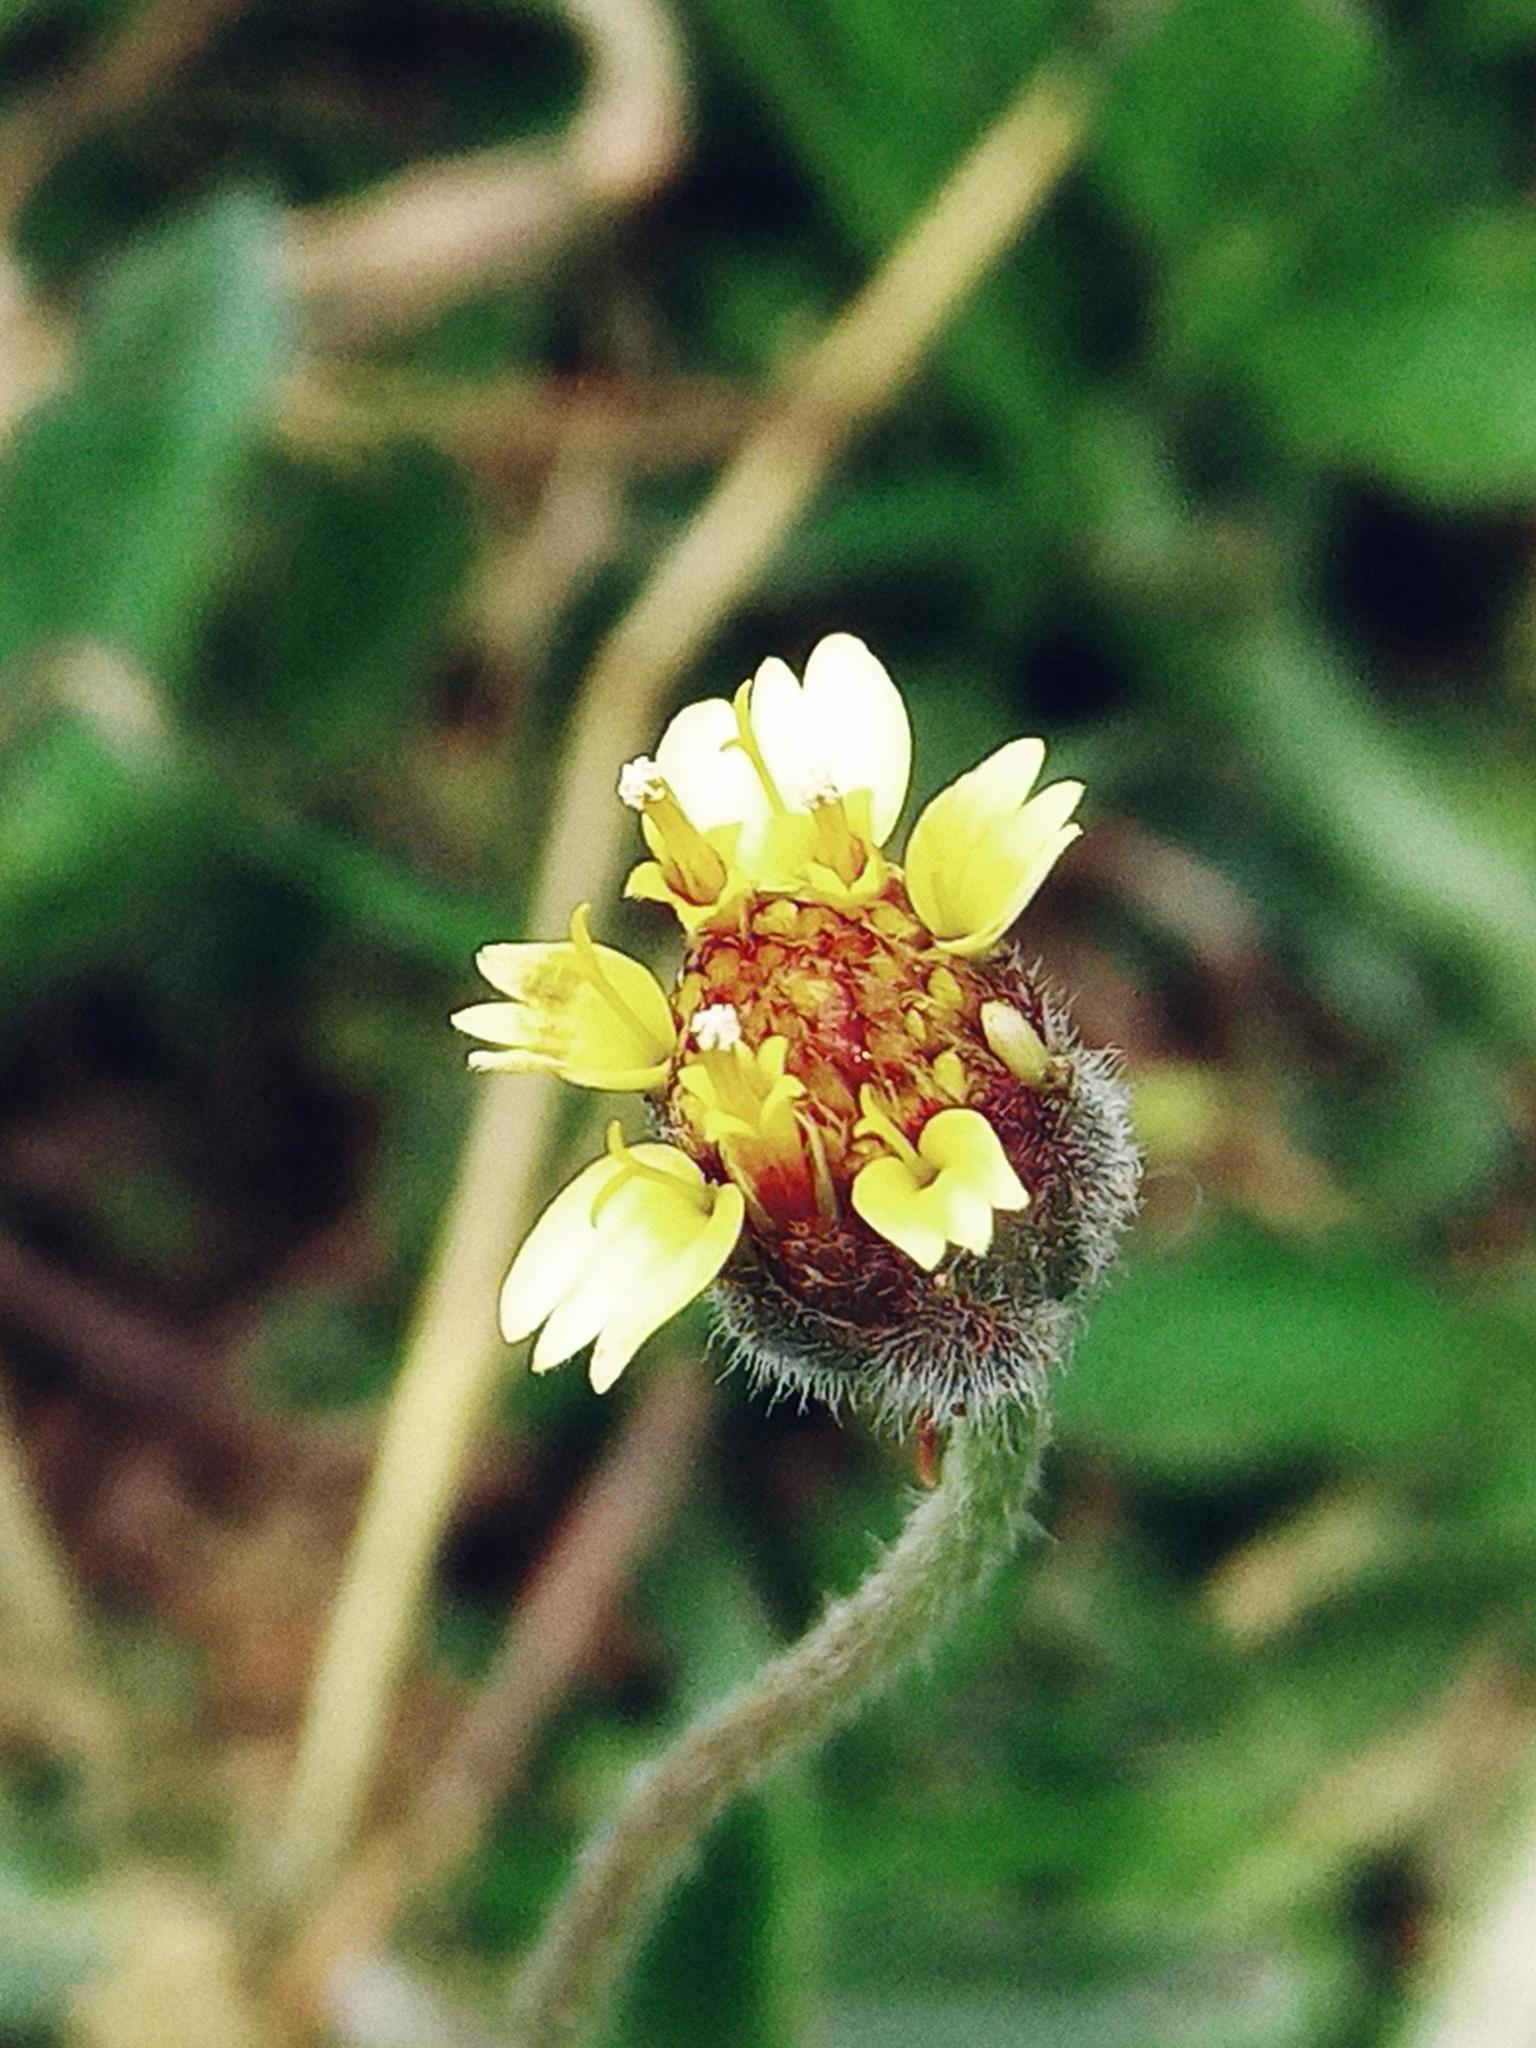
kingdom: Plantae
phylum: Tracheophyta
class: Magnoliopsida
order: Asterales
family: Asteraceae
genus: Tridax
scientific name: Tridax procumbens
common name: Coatbuttons
